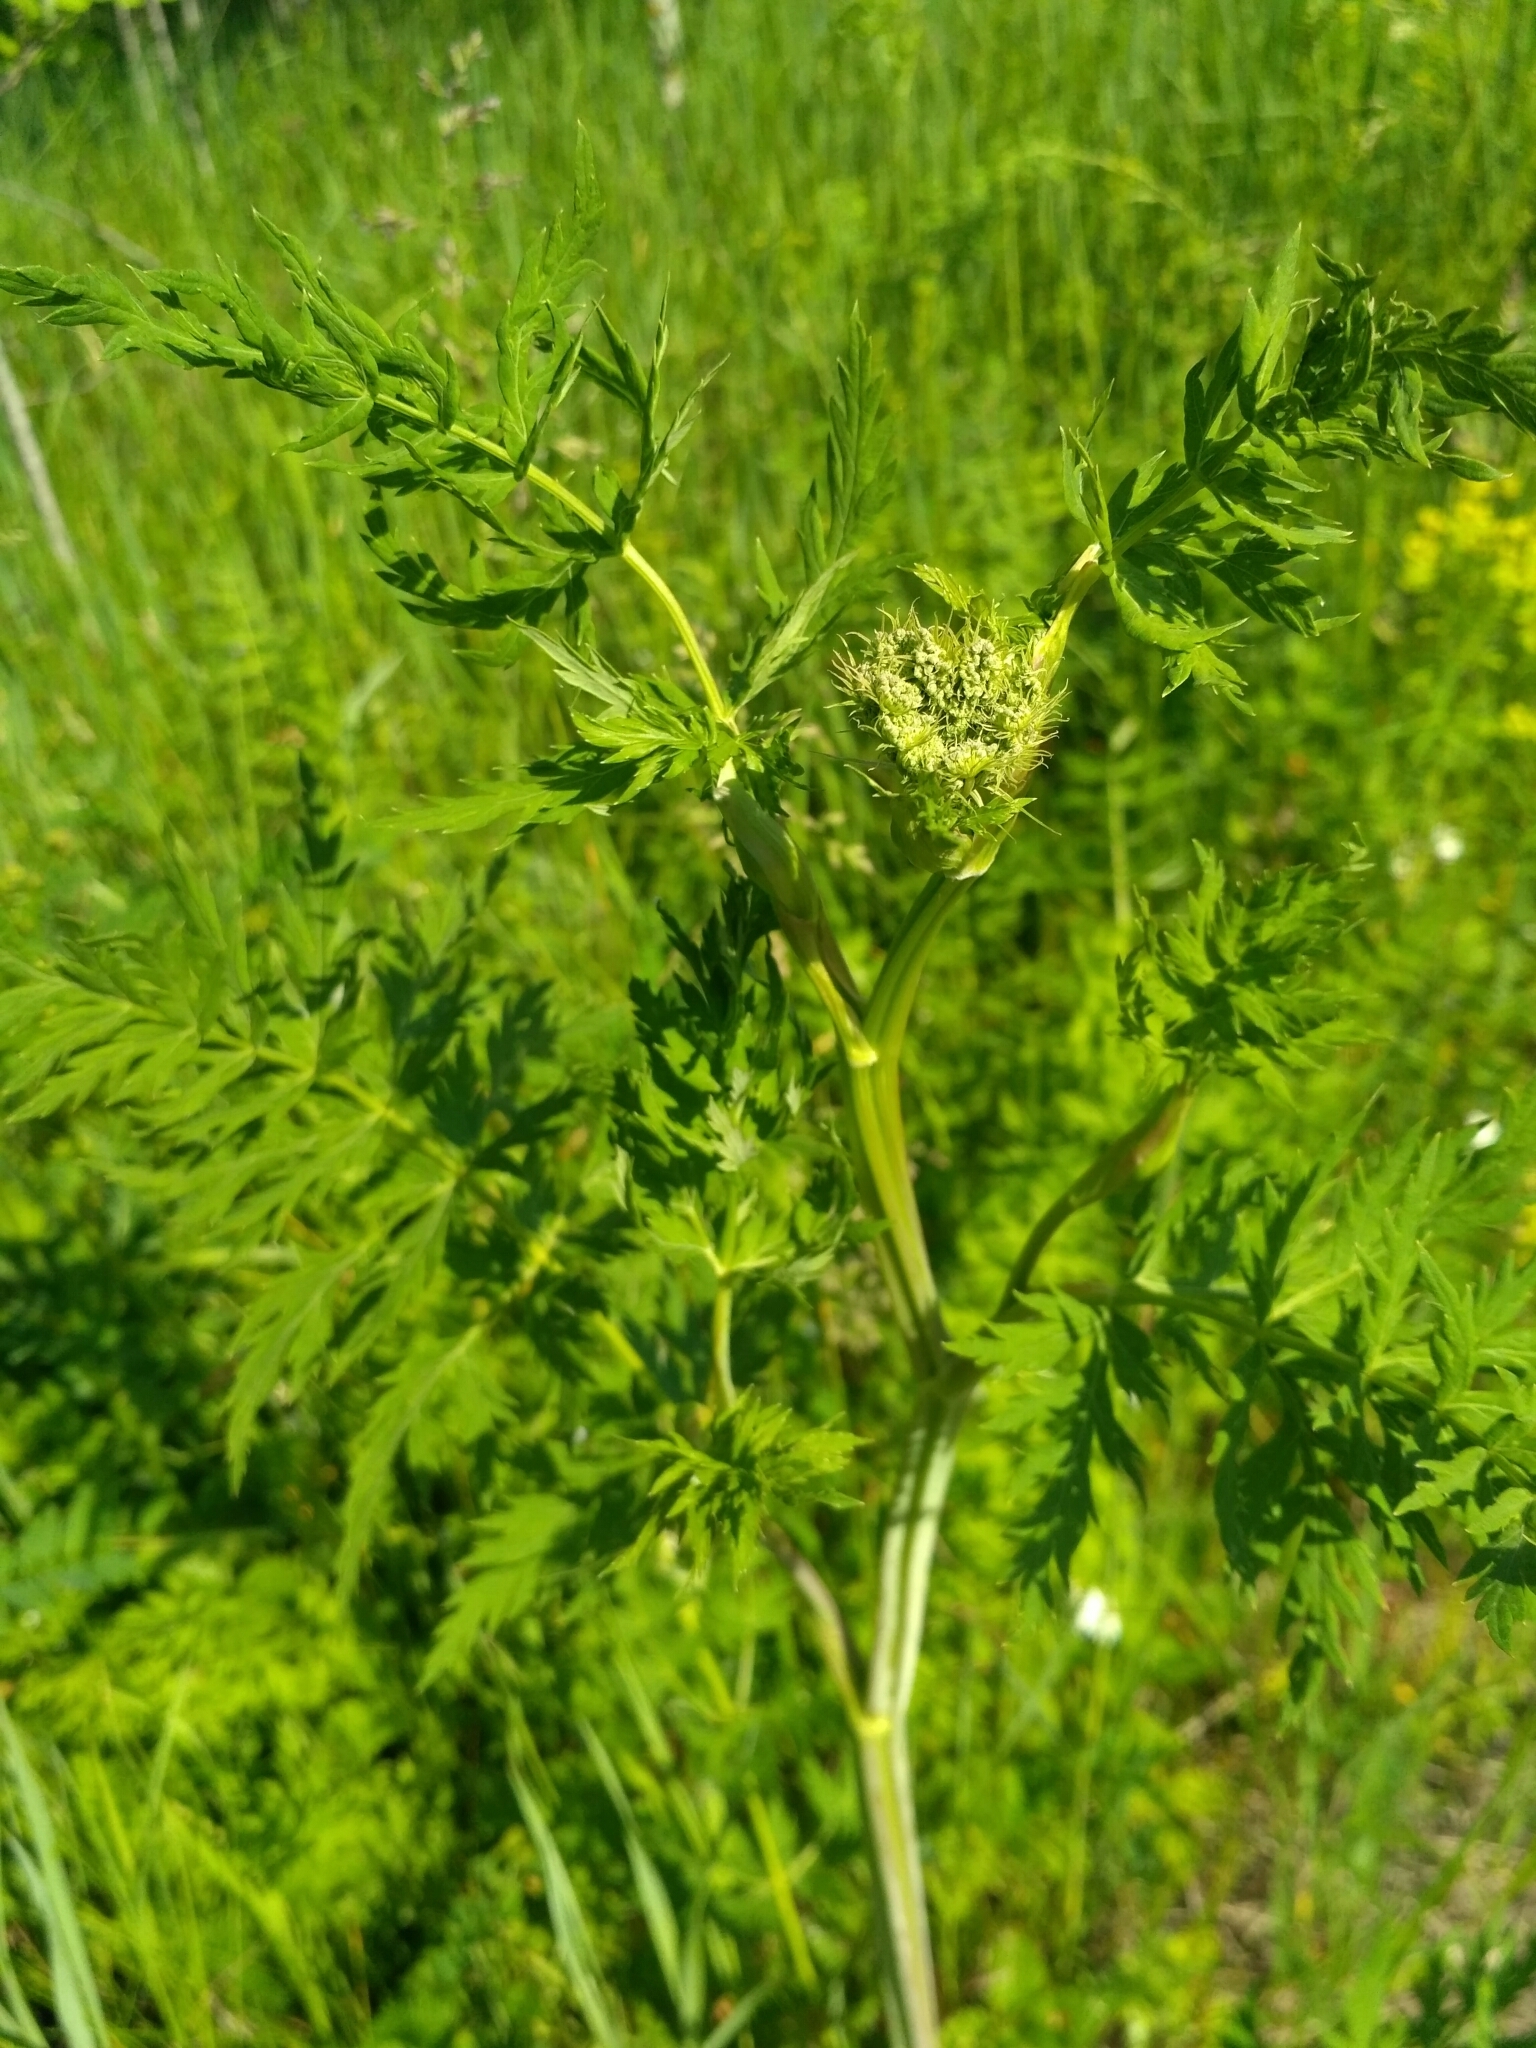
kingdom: Plantae
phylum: Tracheophyta
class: Magnoliopsida
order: Apiales
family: Apiaceae
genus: Seseli
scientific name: Seseli libanotis
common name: Mooncarrot
